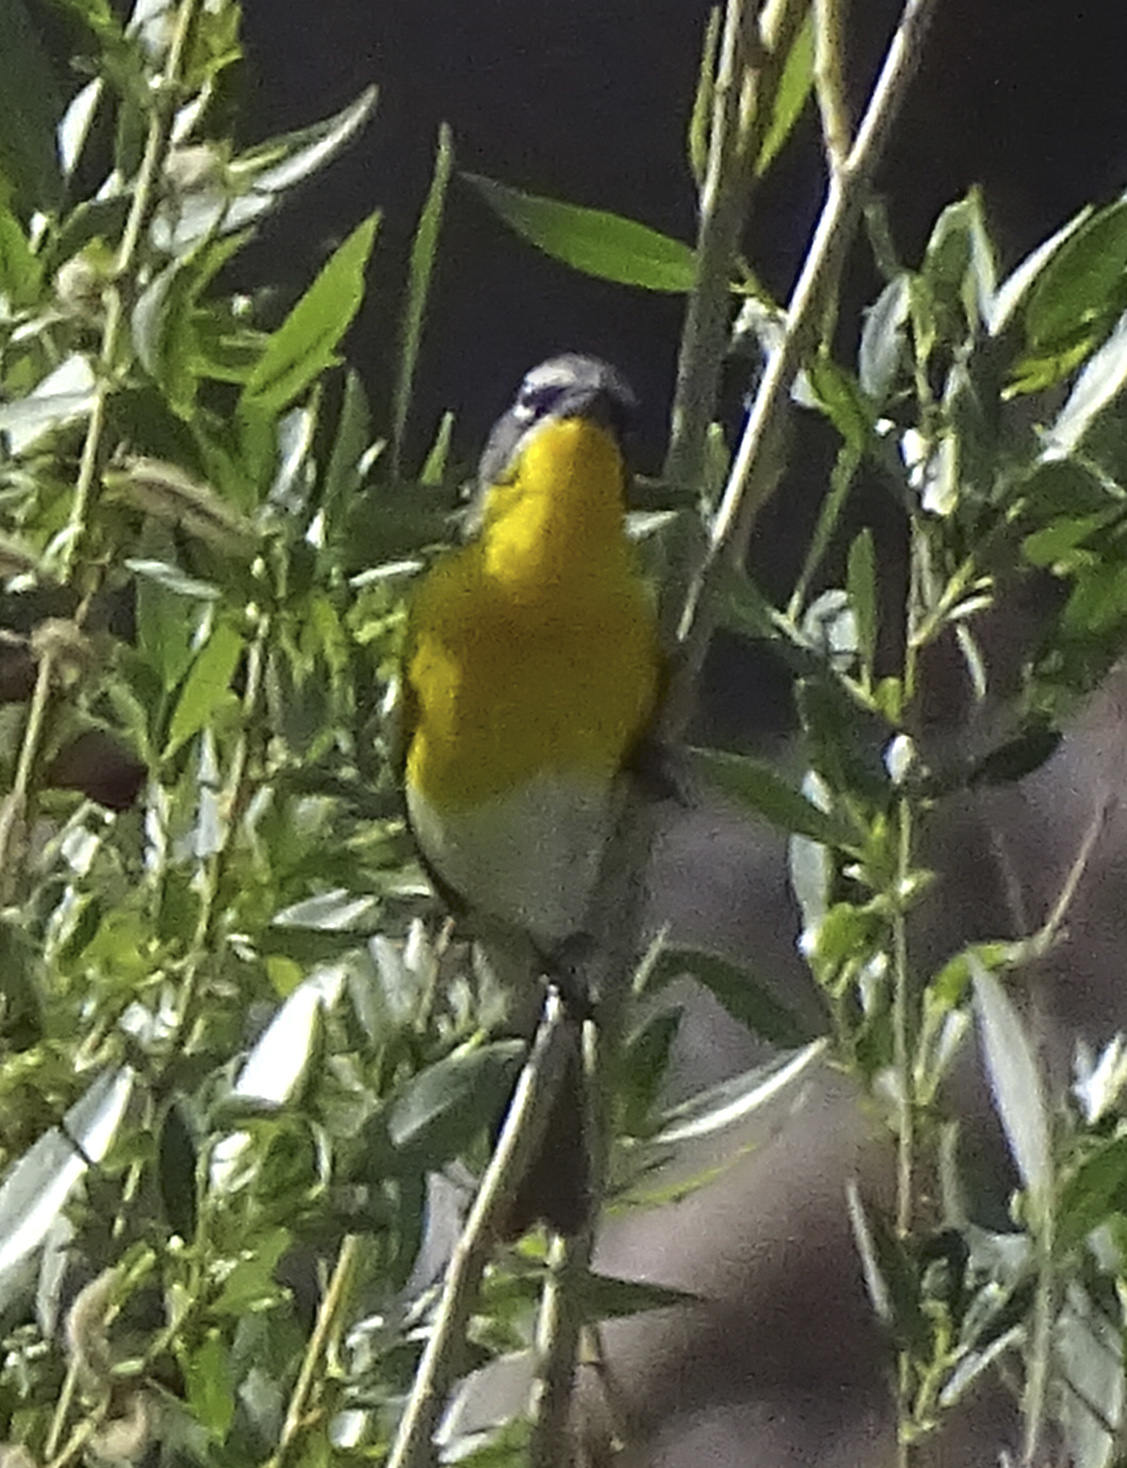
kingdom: Animalia
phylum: Chordata
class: Aves
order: Passeriformes
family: Parulidae
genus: Icteria
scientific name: Icteria virens
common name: Yellow-breasted chat
